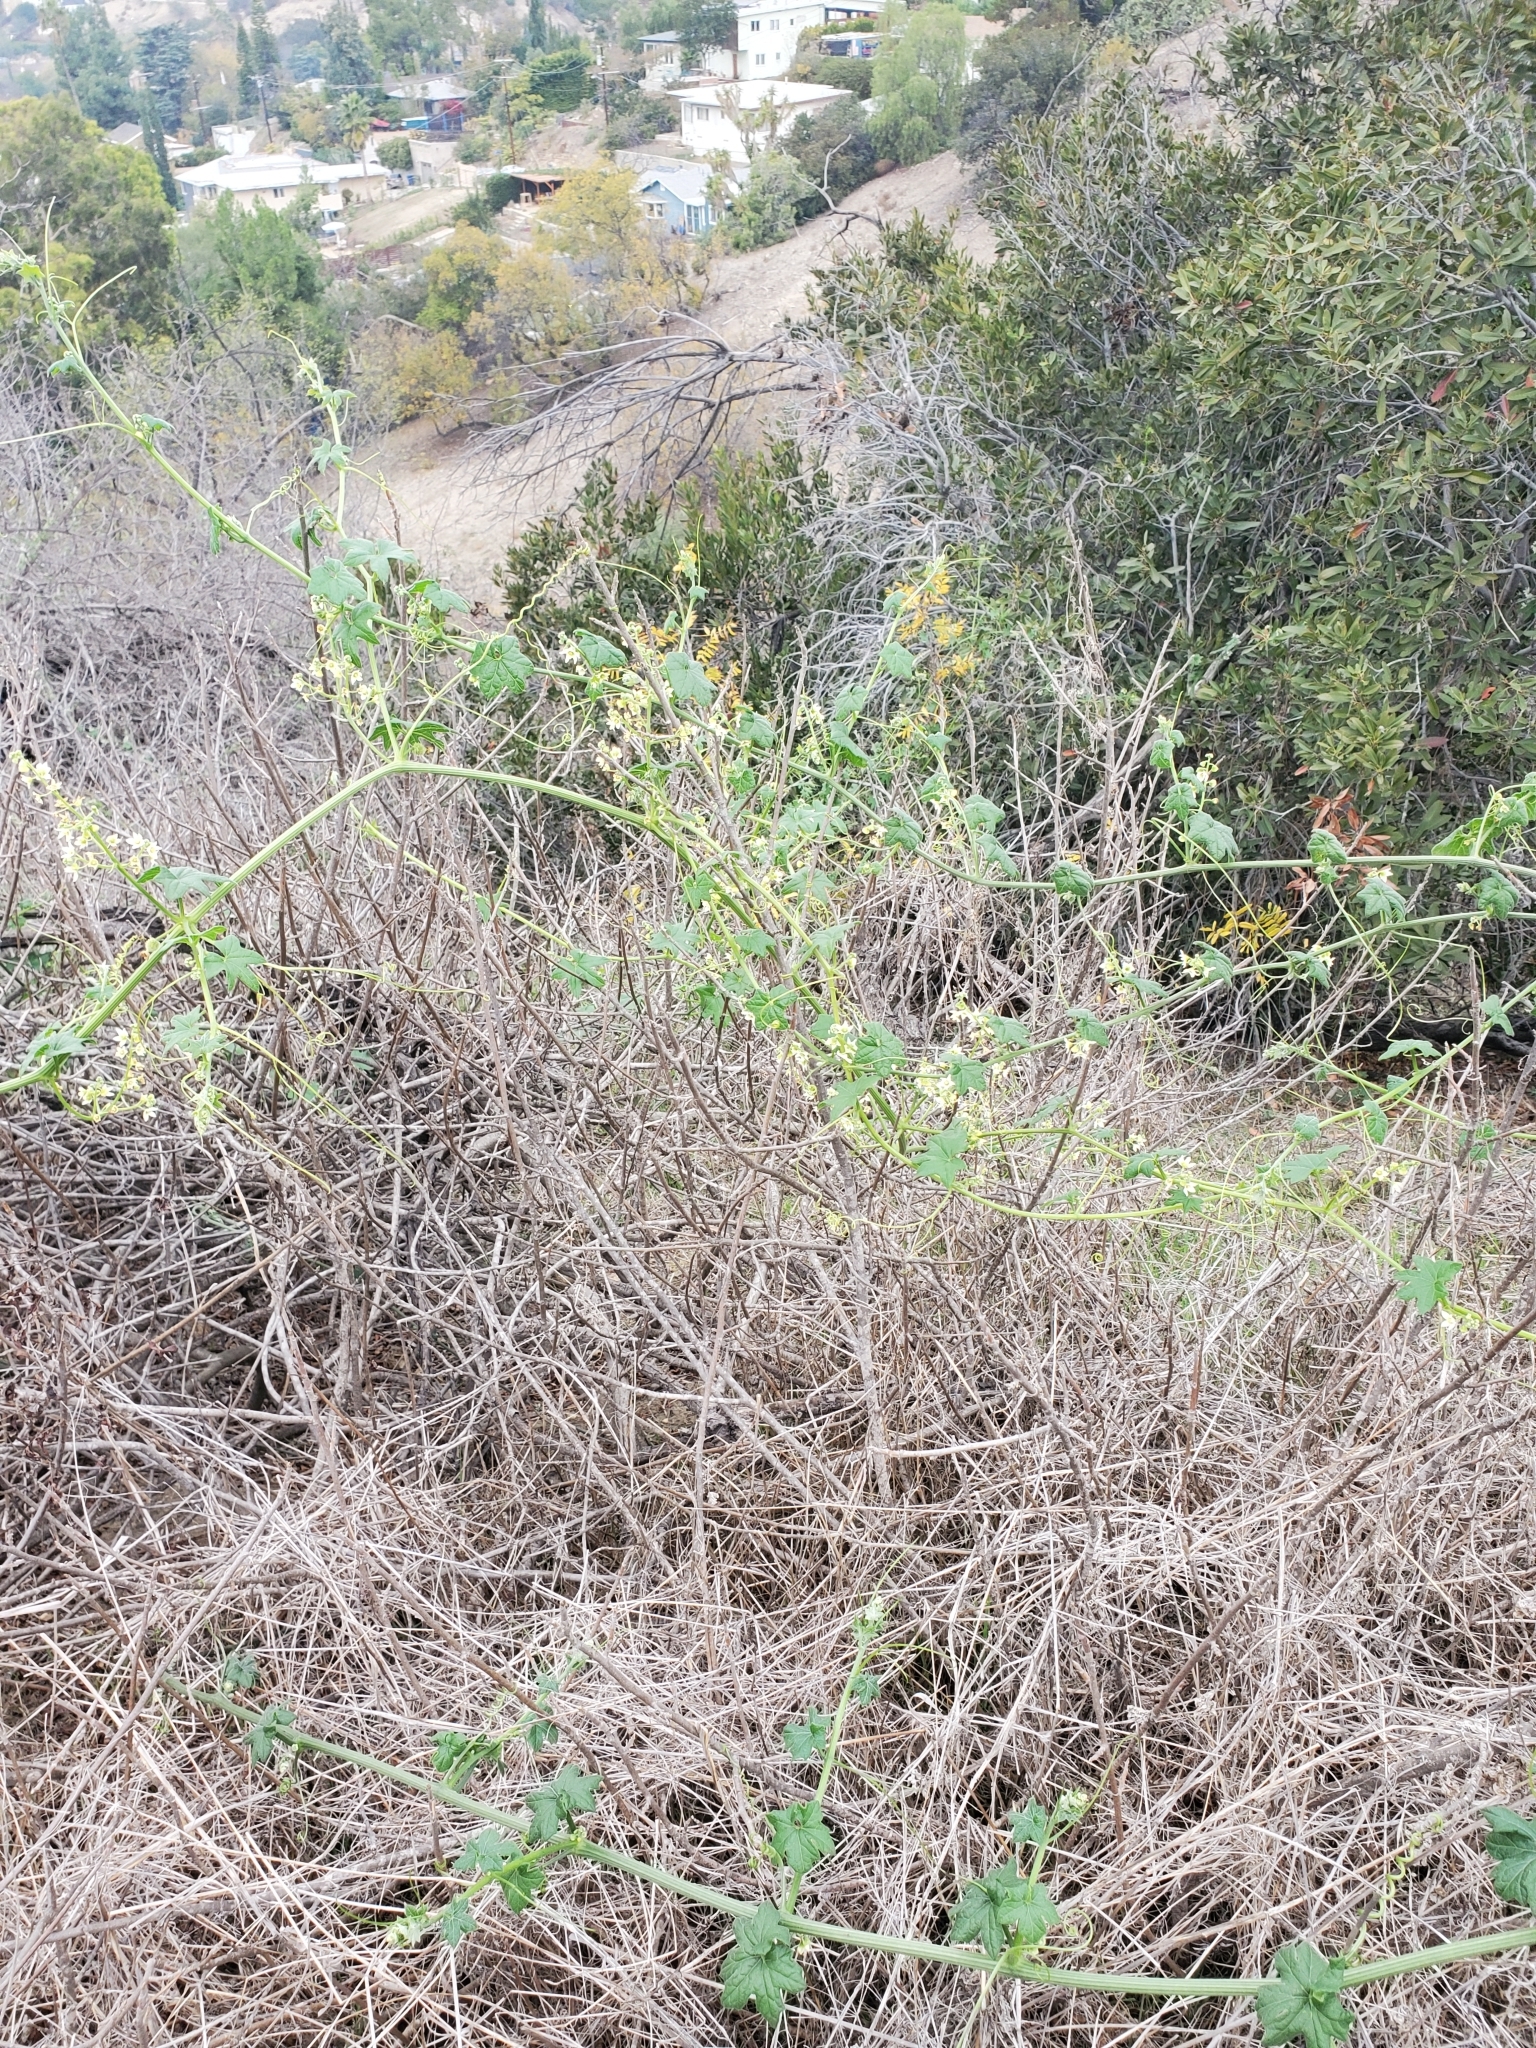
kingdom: Plantae
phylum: Tracheophyta
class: Magnoliopsida
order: Cucurbitales
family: Cucurbitaceae
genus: Marah
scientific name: Marah macrocarpa
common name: Cucamonga manroot
